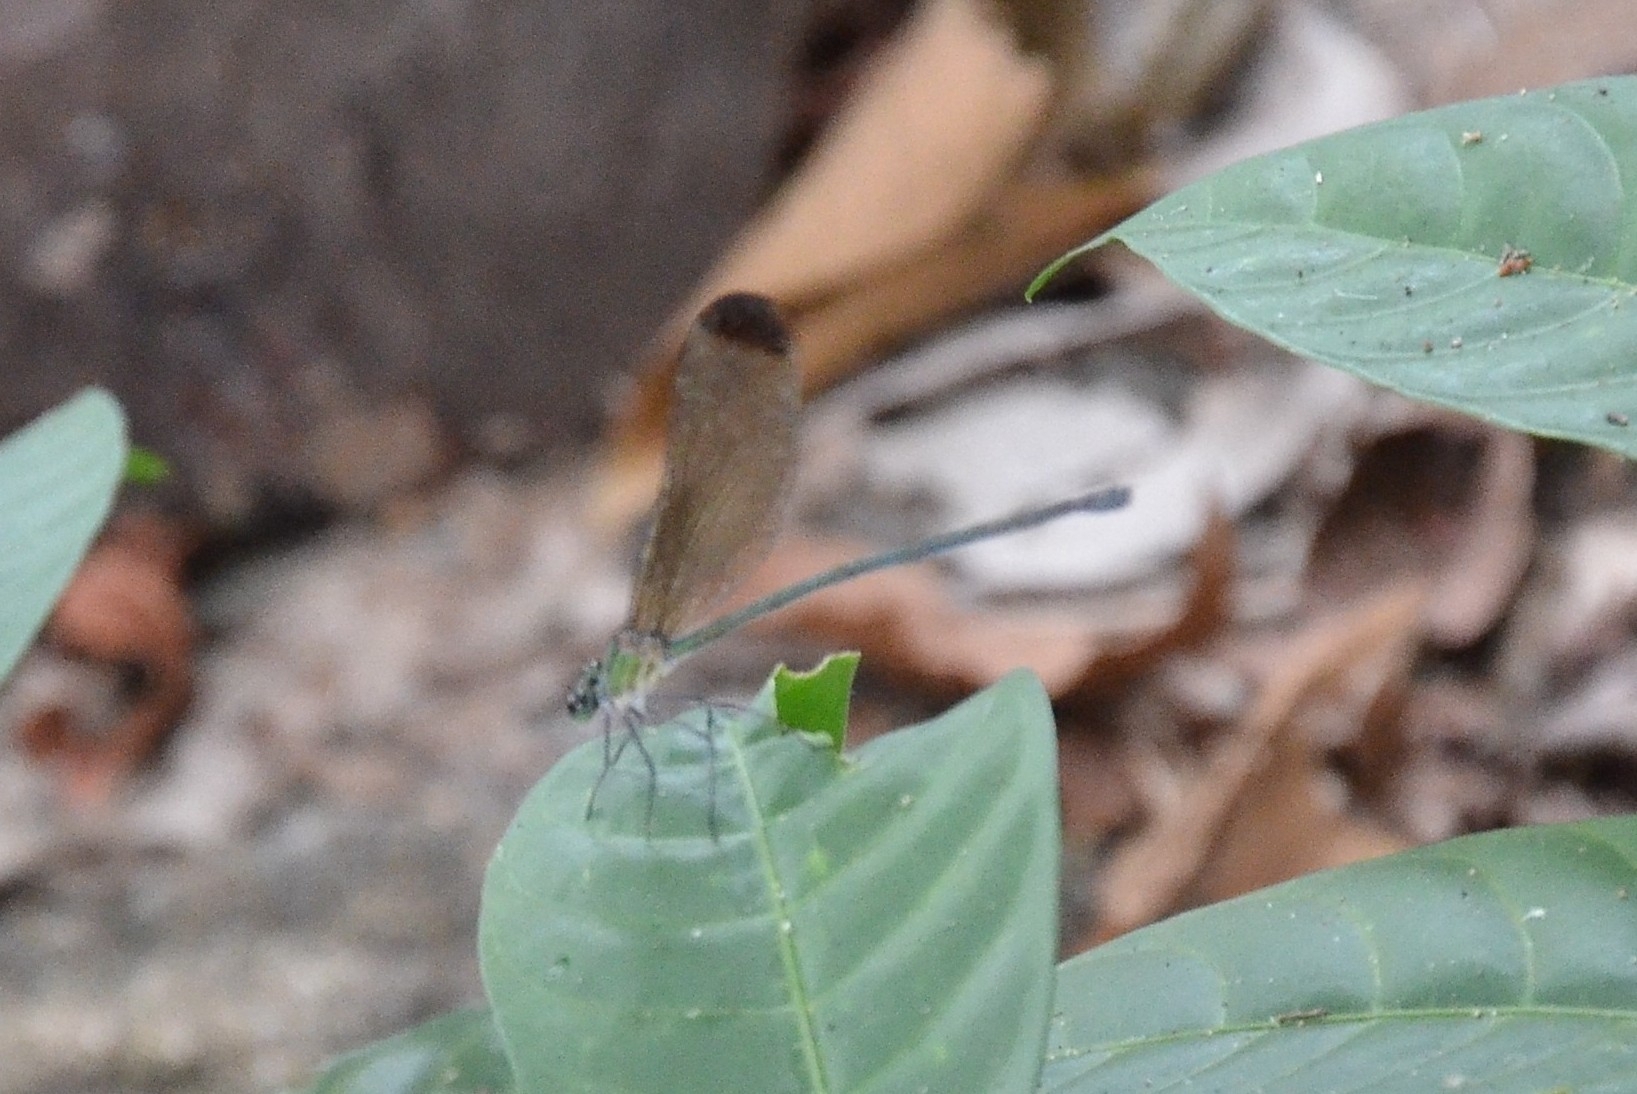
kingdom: Animalia
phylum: Arthropoda
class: Insecta
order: Odonata
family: Calopterygidae
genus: Vestalis
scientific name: Vestalis apicalis
